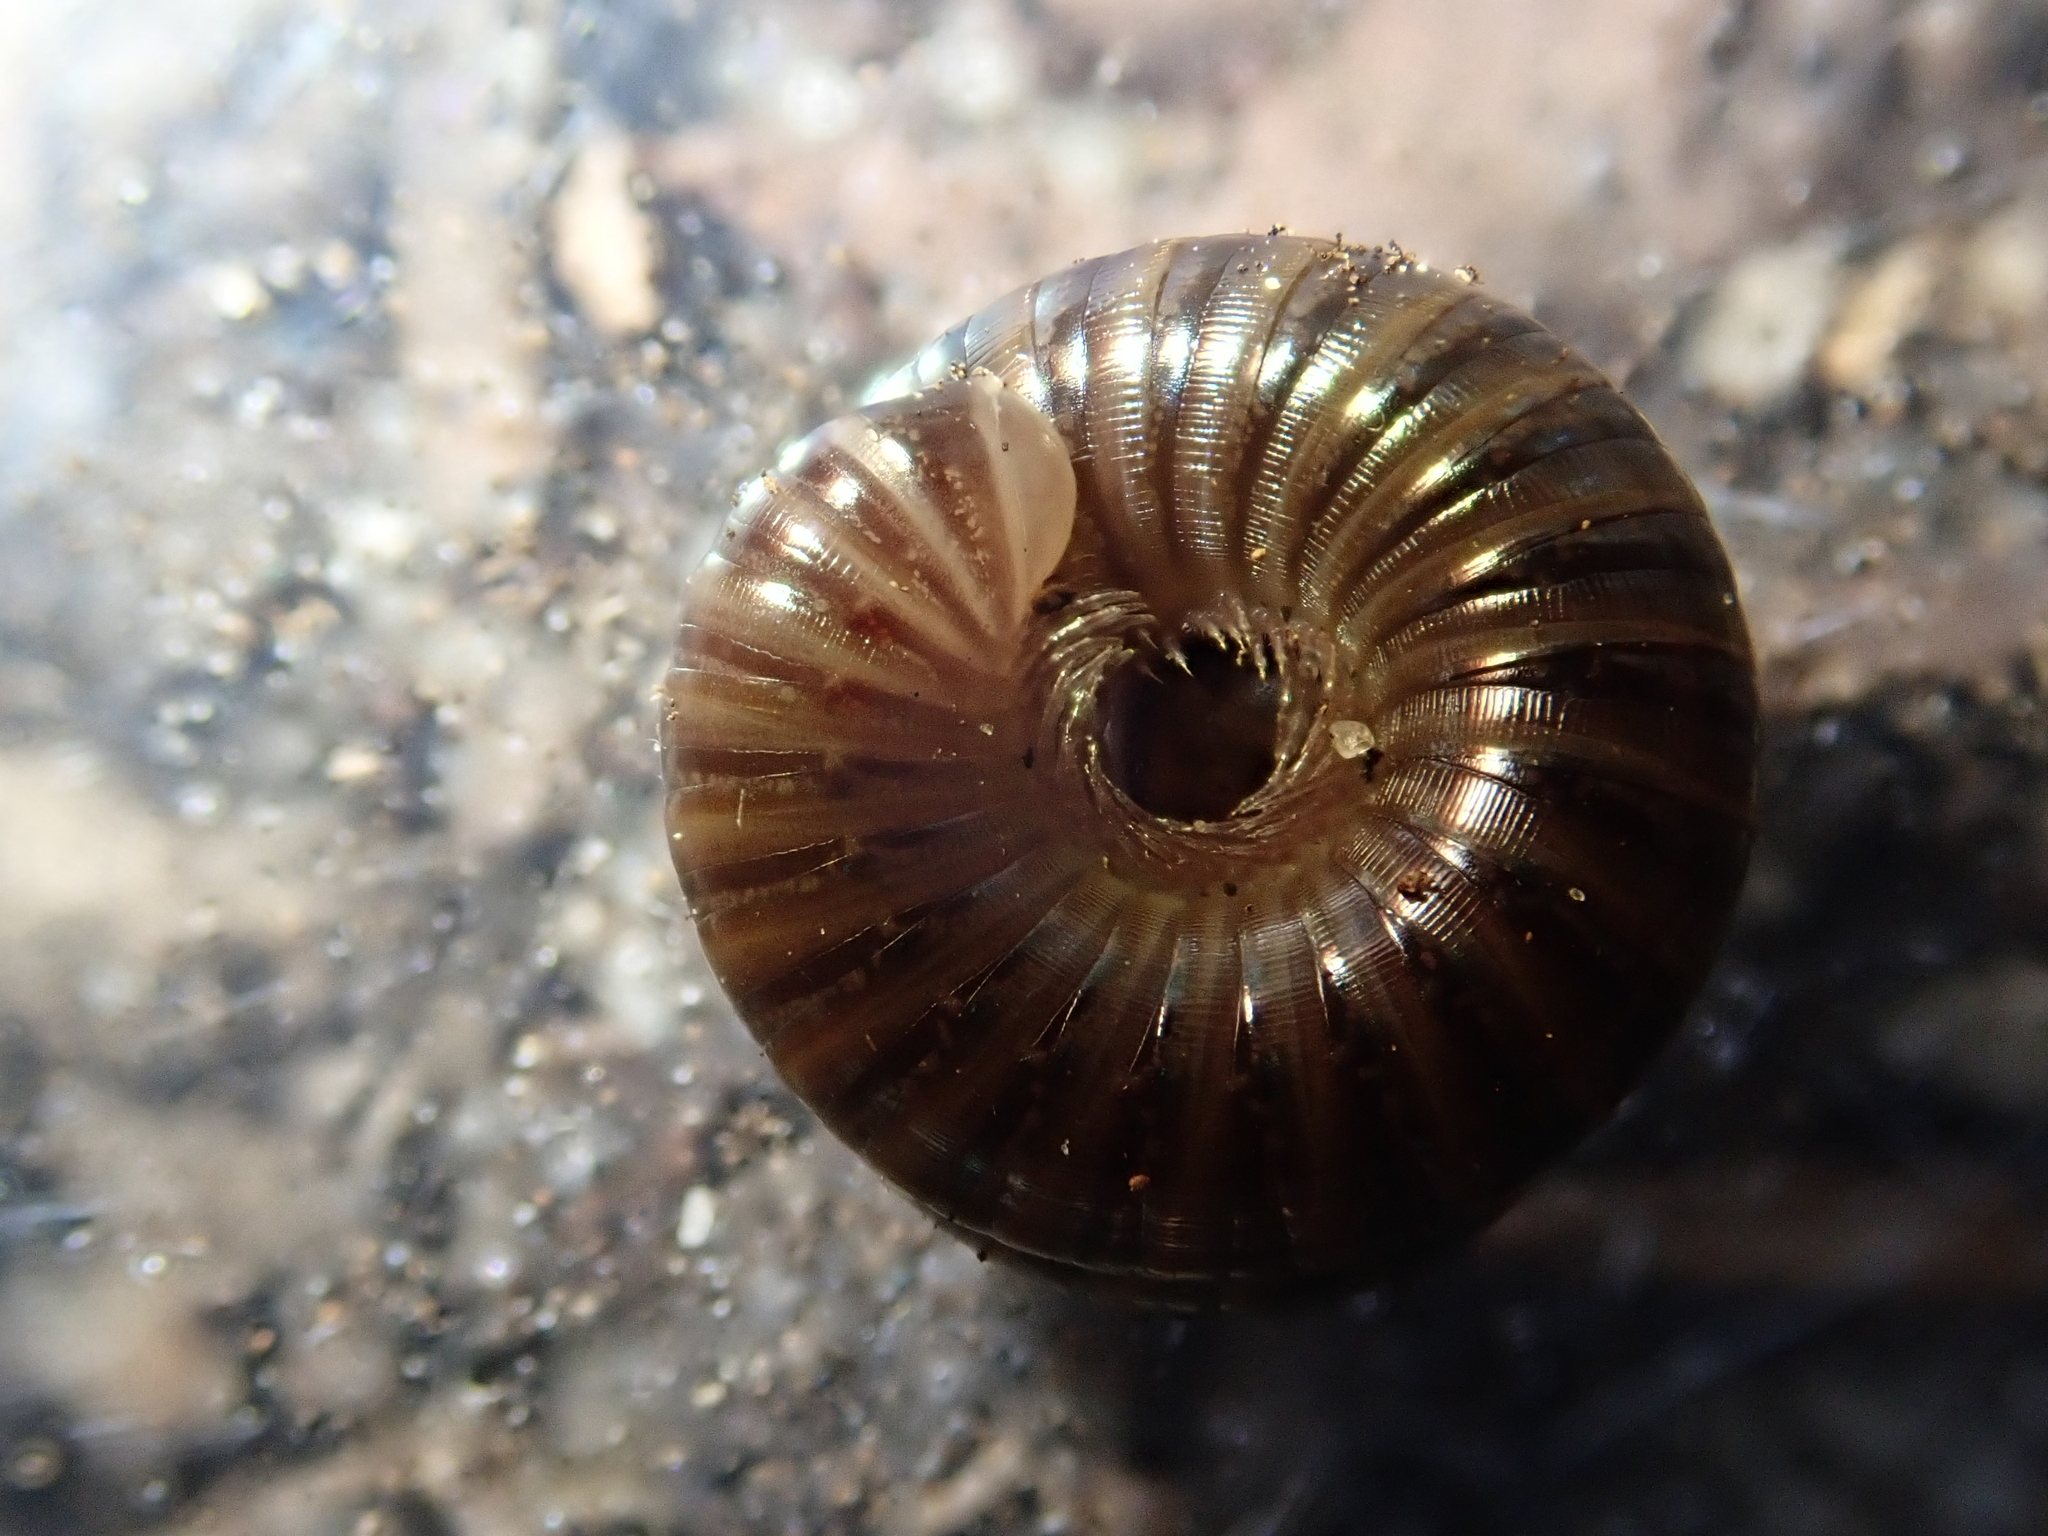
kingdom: Animalia
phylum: Arthropoda
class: Diplopoda
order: Julida
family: Julidae
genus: Cylindroiulus
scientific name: Cylindroiulus caeruleocinctus
